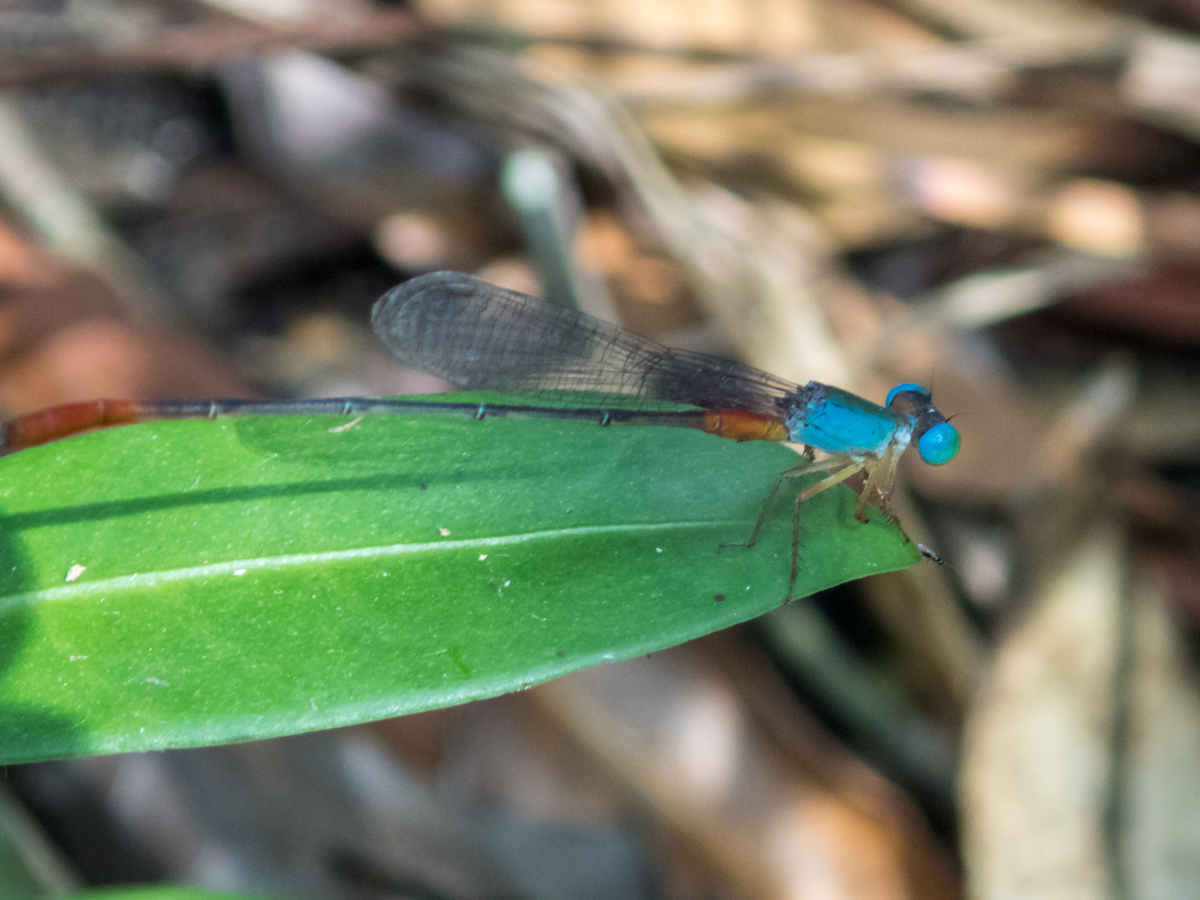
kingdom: Animalia
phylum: Arthropoda
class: Insecta
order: Odonata
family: Coenagrionidae
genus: Ceriagrion
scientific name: Ceriagrion cerinorubellum
